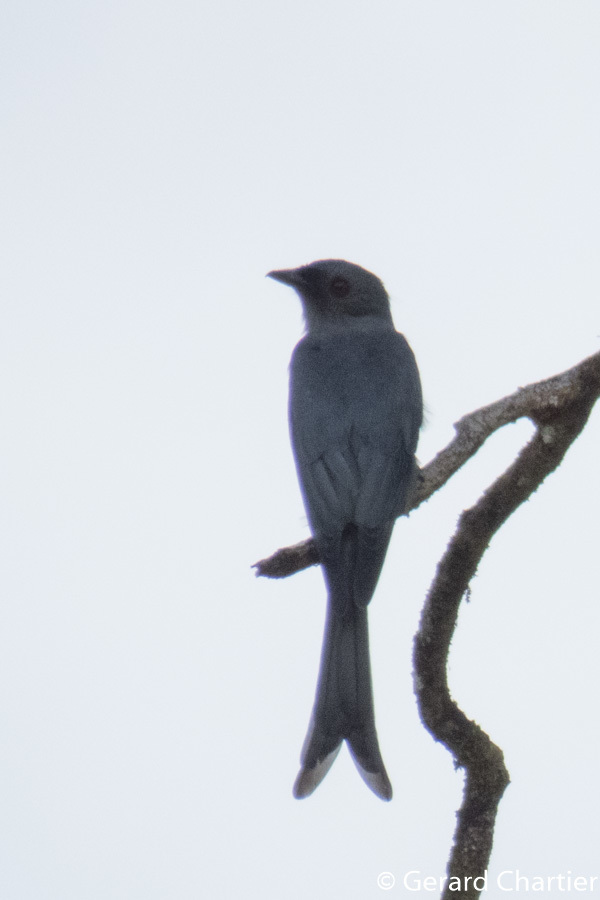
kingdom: Animalia
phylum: Chordata
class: Aves
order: Passeriformes
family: Dicruridae
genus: Dicrurus
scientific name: Dicrurus leucophaeus
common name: Ashy drongo
